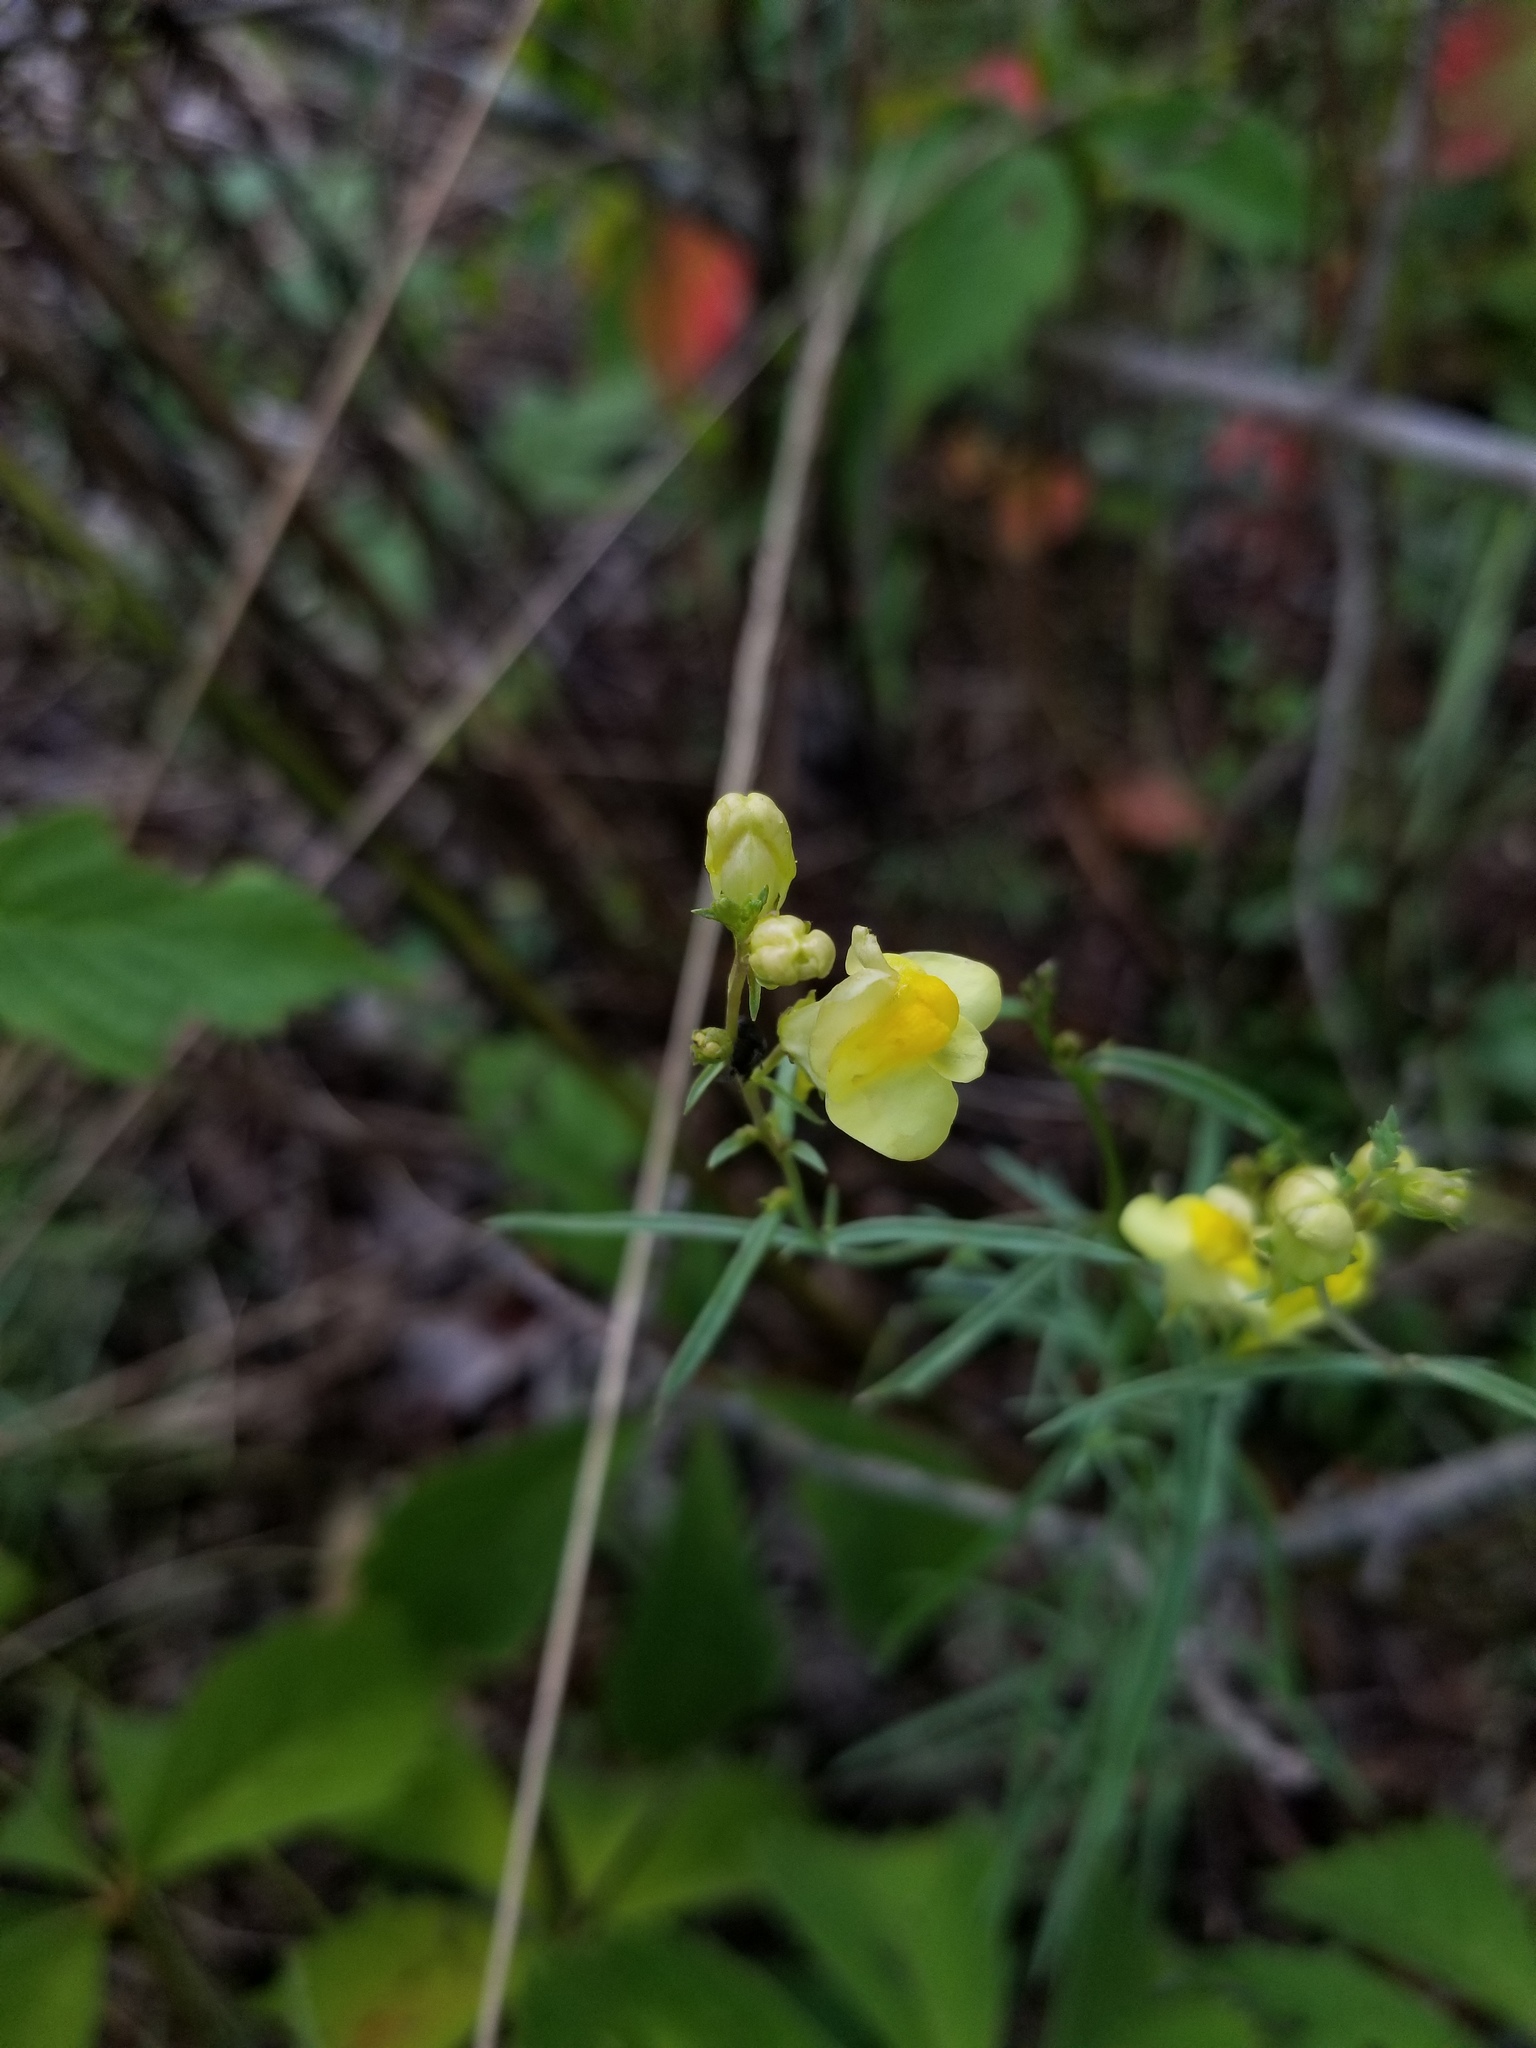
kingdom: Plantae
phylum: Tracheophyta
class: Magnoliopsida
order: Lamiales
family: Plantaginaceae
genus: Linaria
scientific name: Linaria vulgaris
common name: Butter and eggs
